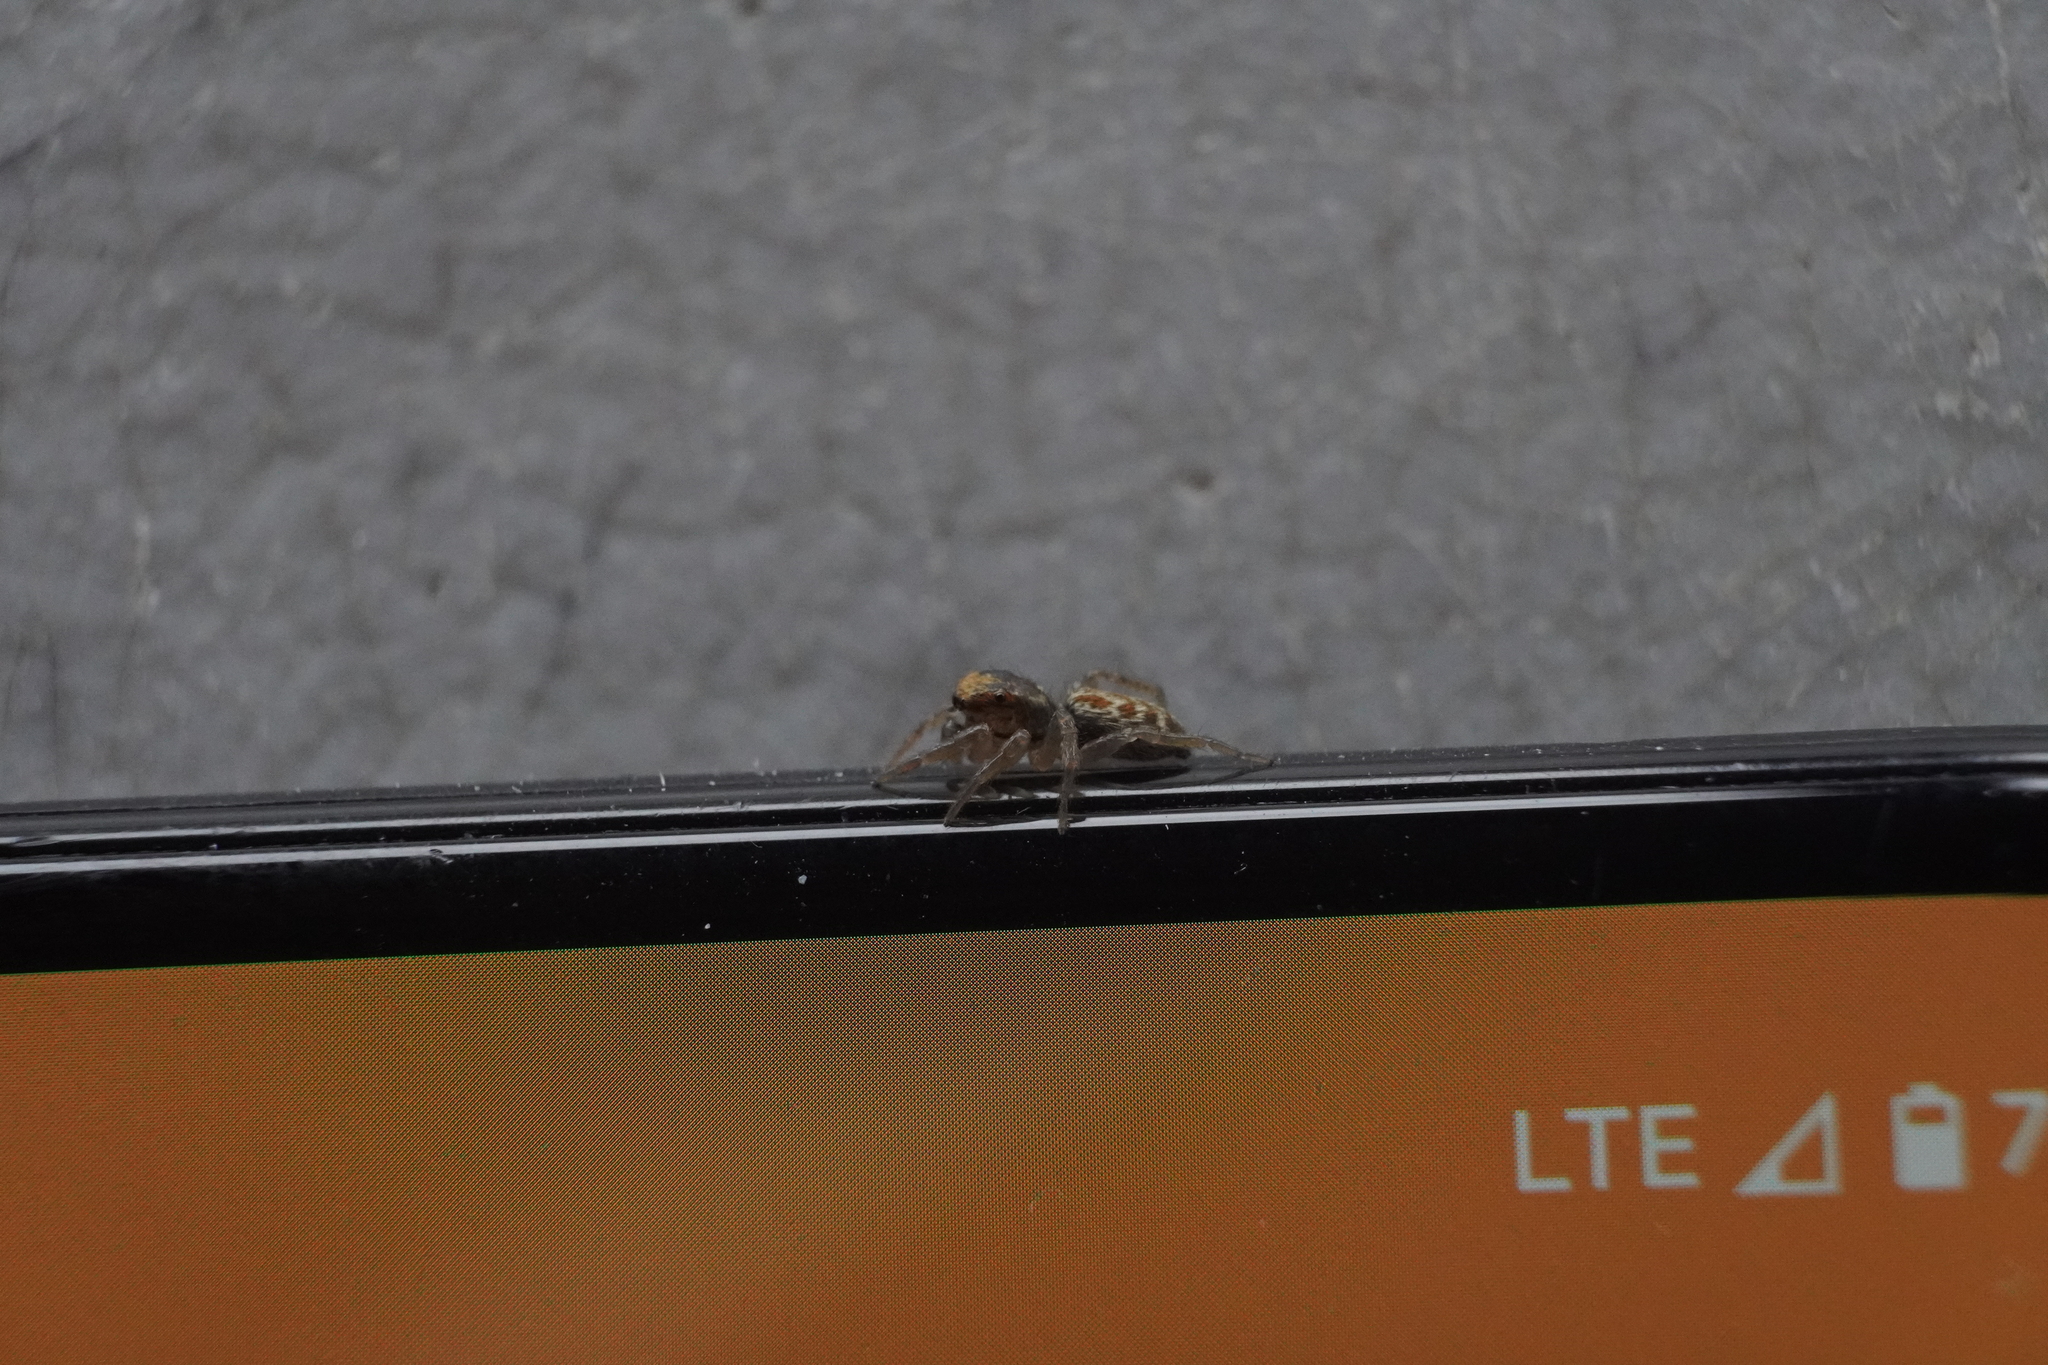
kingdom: Animalia
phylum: Arthropoda
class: Arachnida
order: Araneae
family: Salticidae
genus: Maevia
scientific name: Maevia inclemens
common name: Dimorphic jumper
